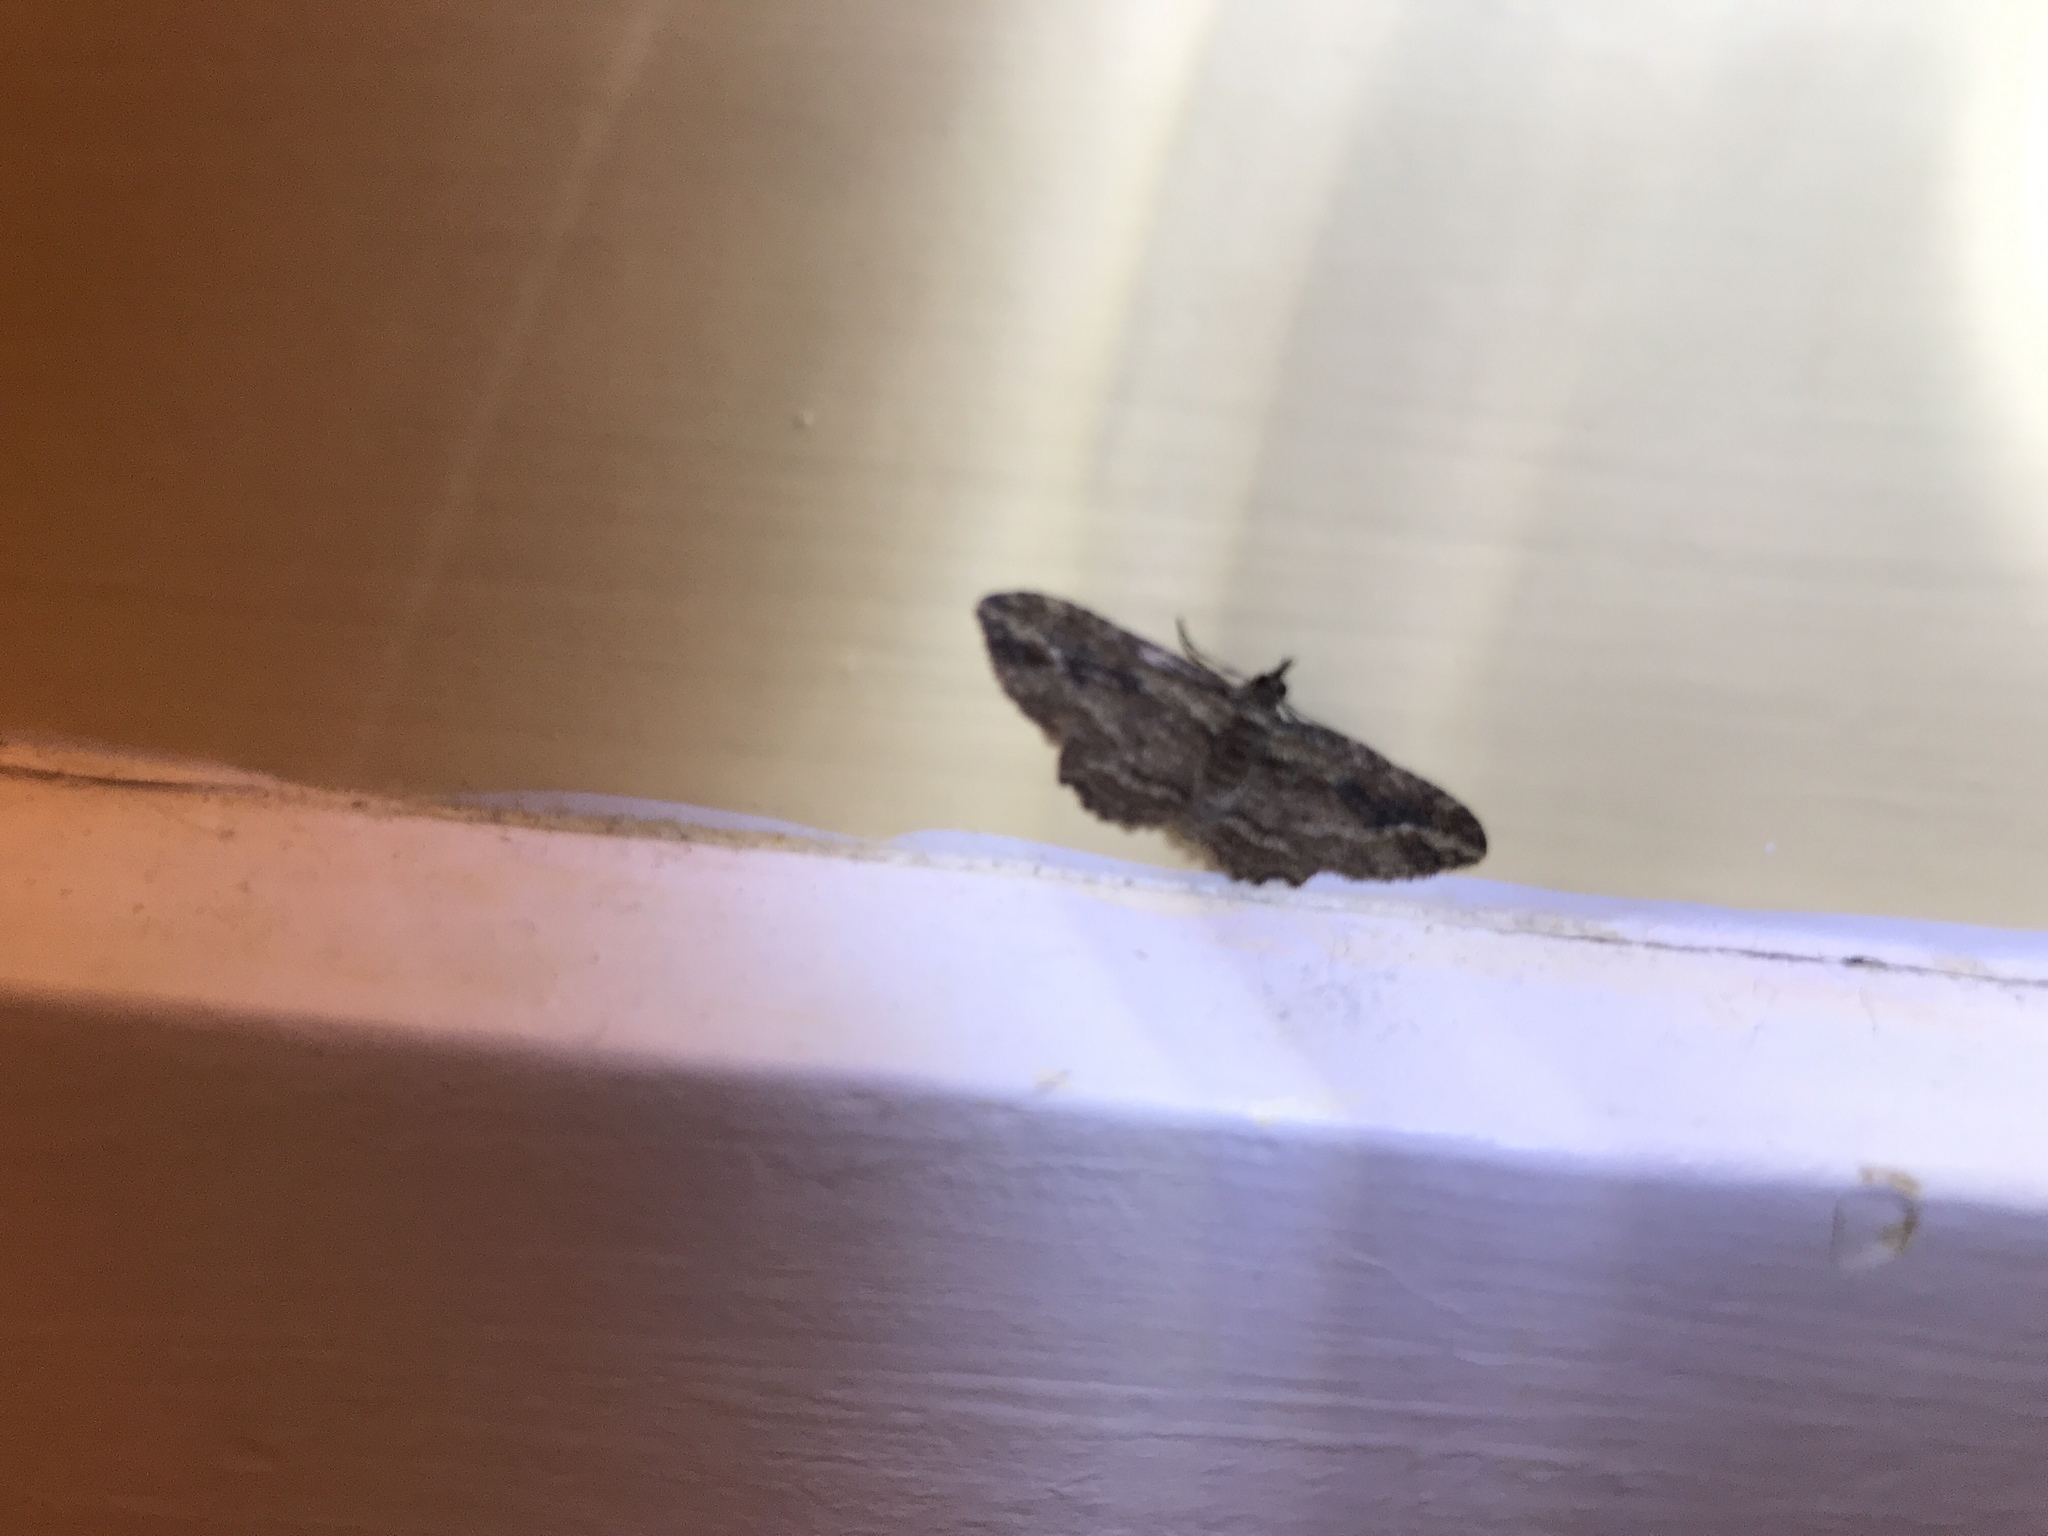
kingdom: Animalia
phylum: Arthropoda
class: Insecta
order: Lepidoptera
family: Geometridae
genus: Chloroclystis
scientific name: Chloroclystis filata
